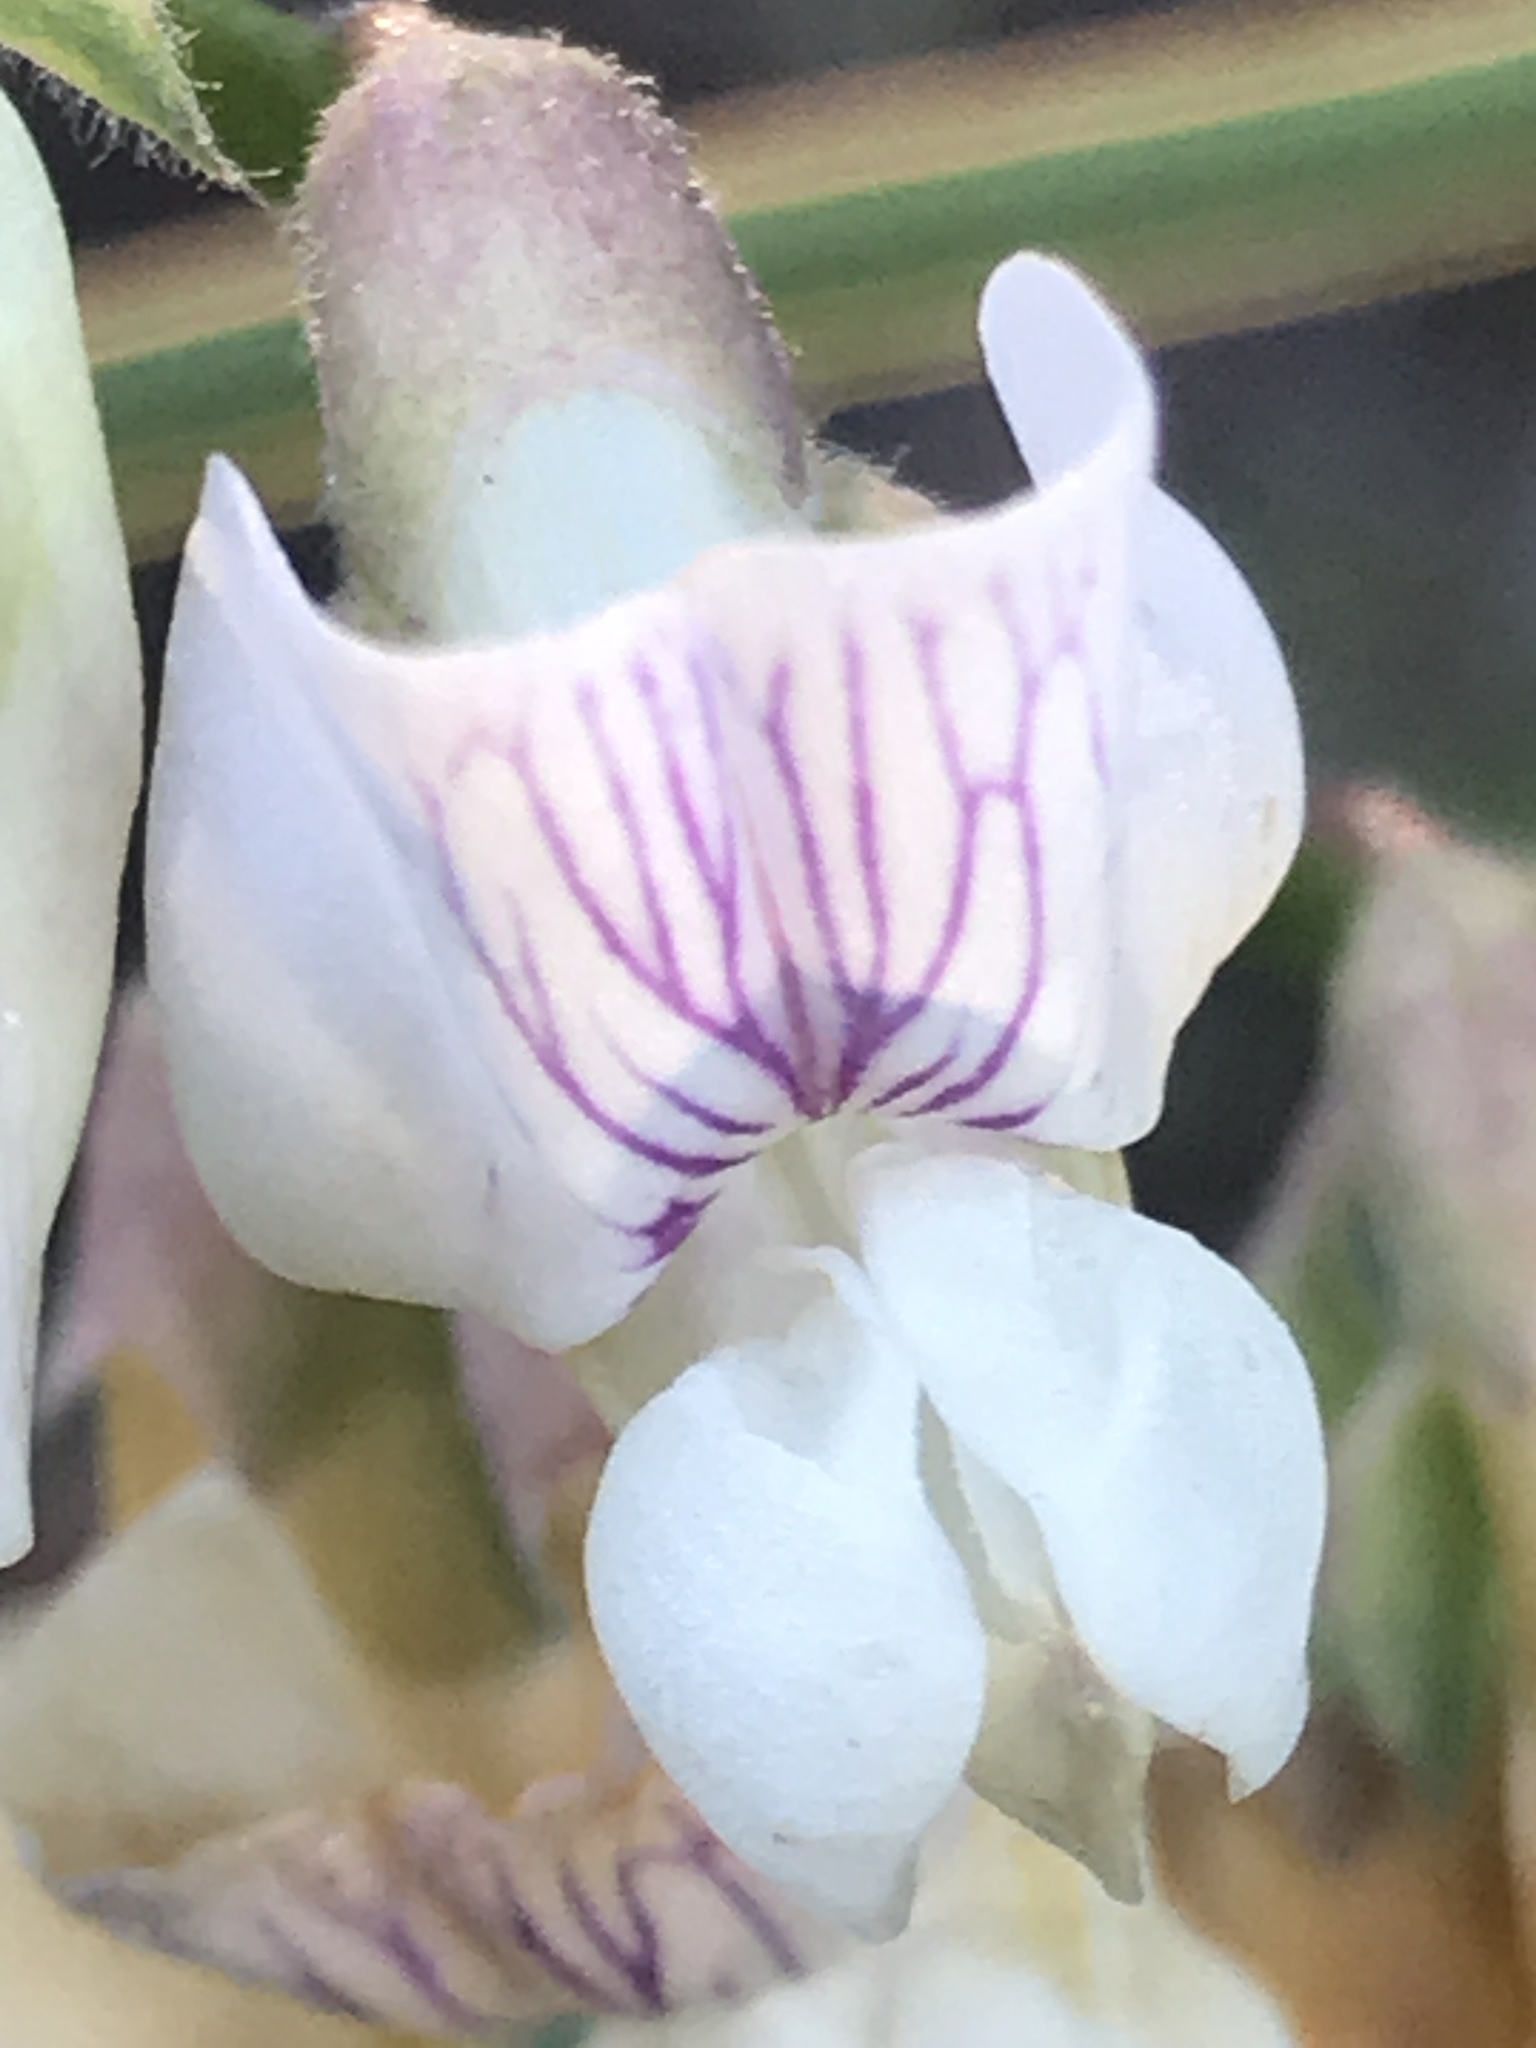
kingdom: Plantae
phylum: Tracheophyta
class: Magnoliopsida
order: Fabales
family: Fabaceae
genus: Lathyrus
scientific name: Lathyrus vestitus
